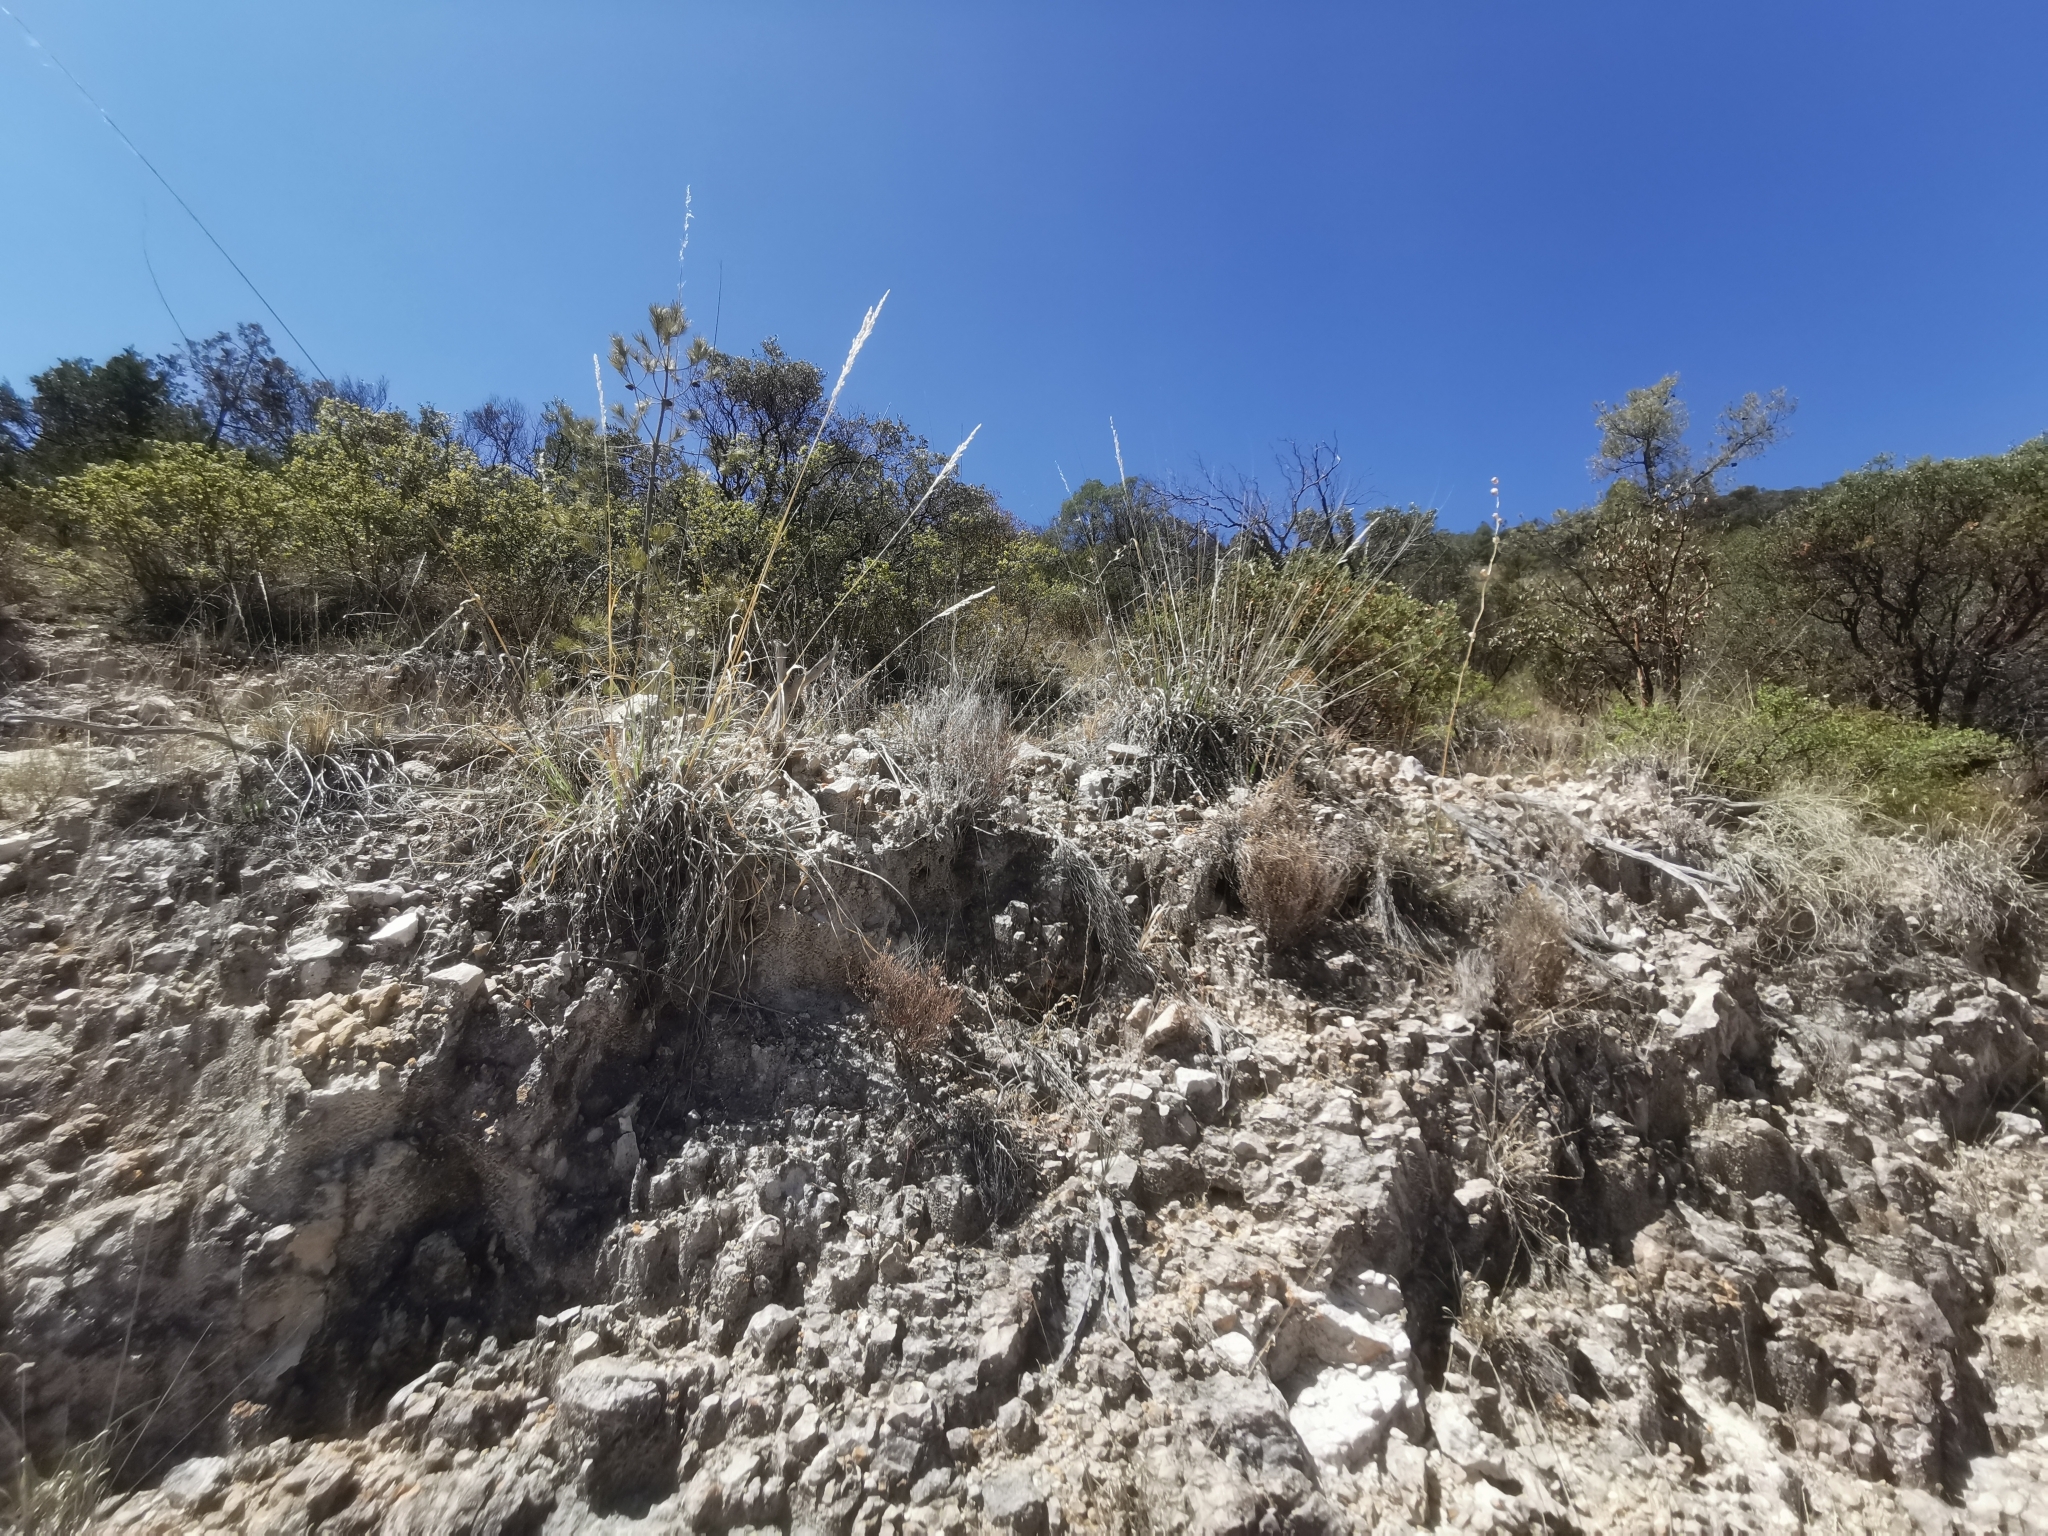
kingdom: Plantae
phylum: Tracheophyta
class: Magnoliopsida
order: Myrtales
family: Onagraceae
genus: Megacorax
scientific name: Megacorax gracielanus
